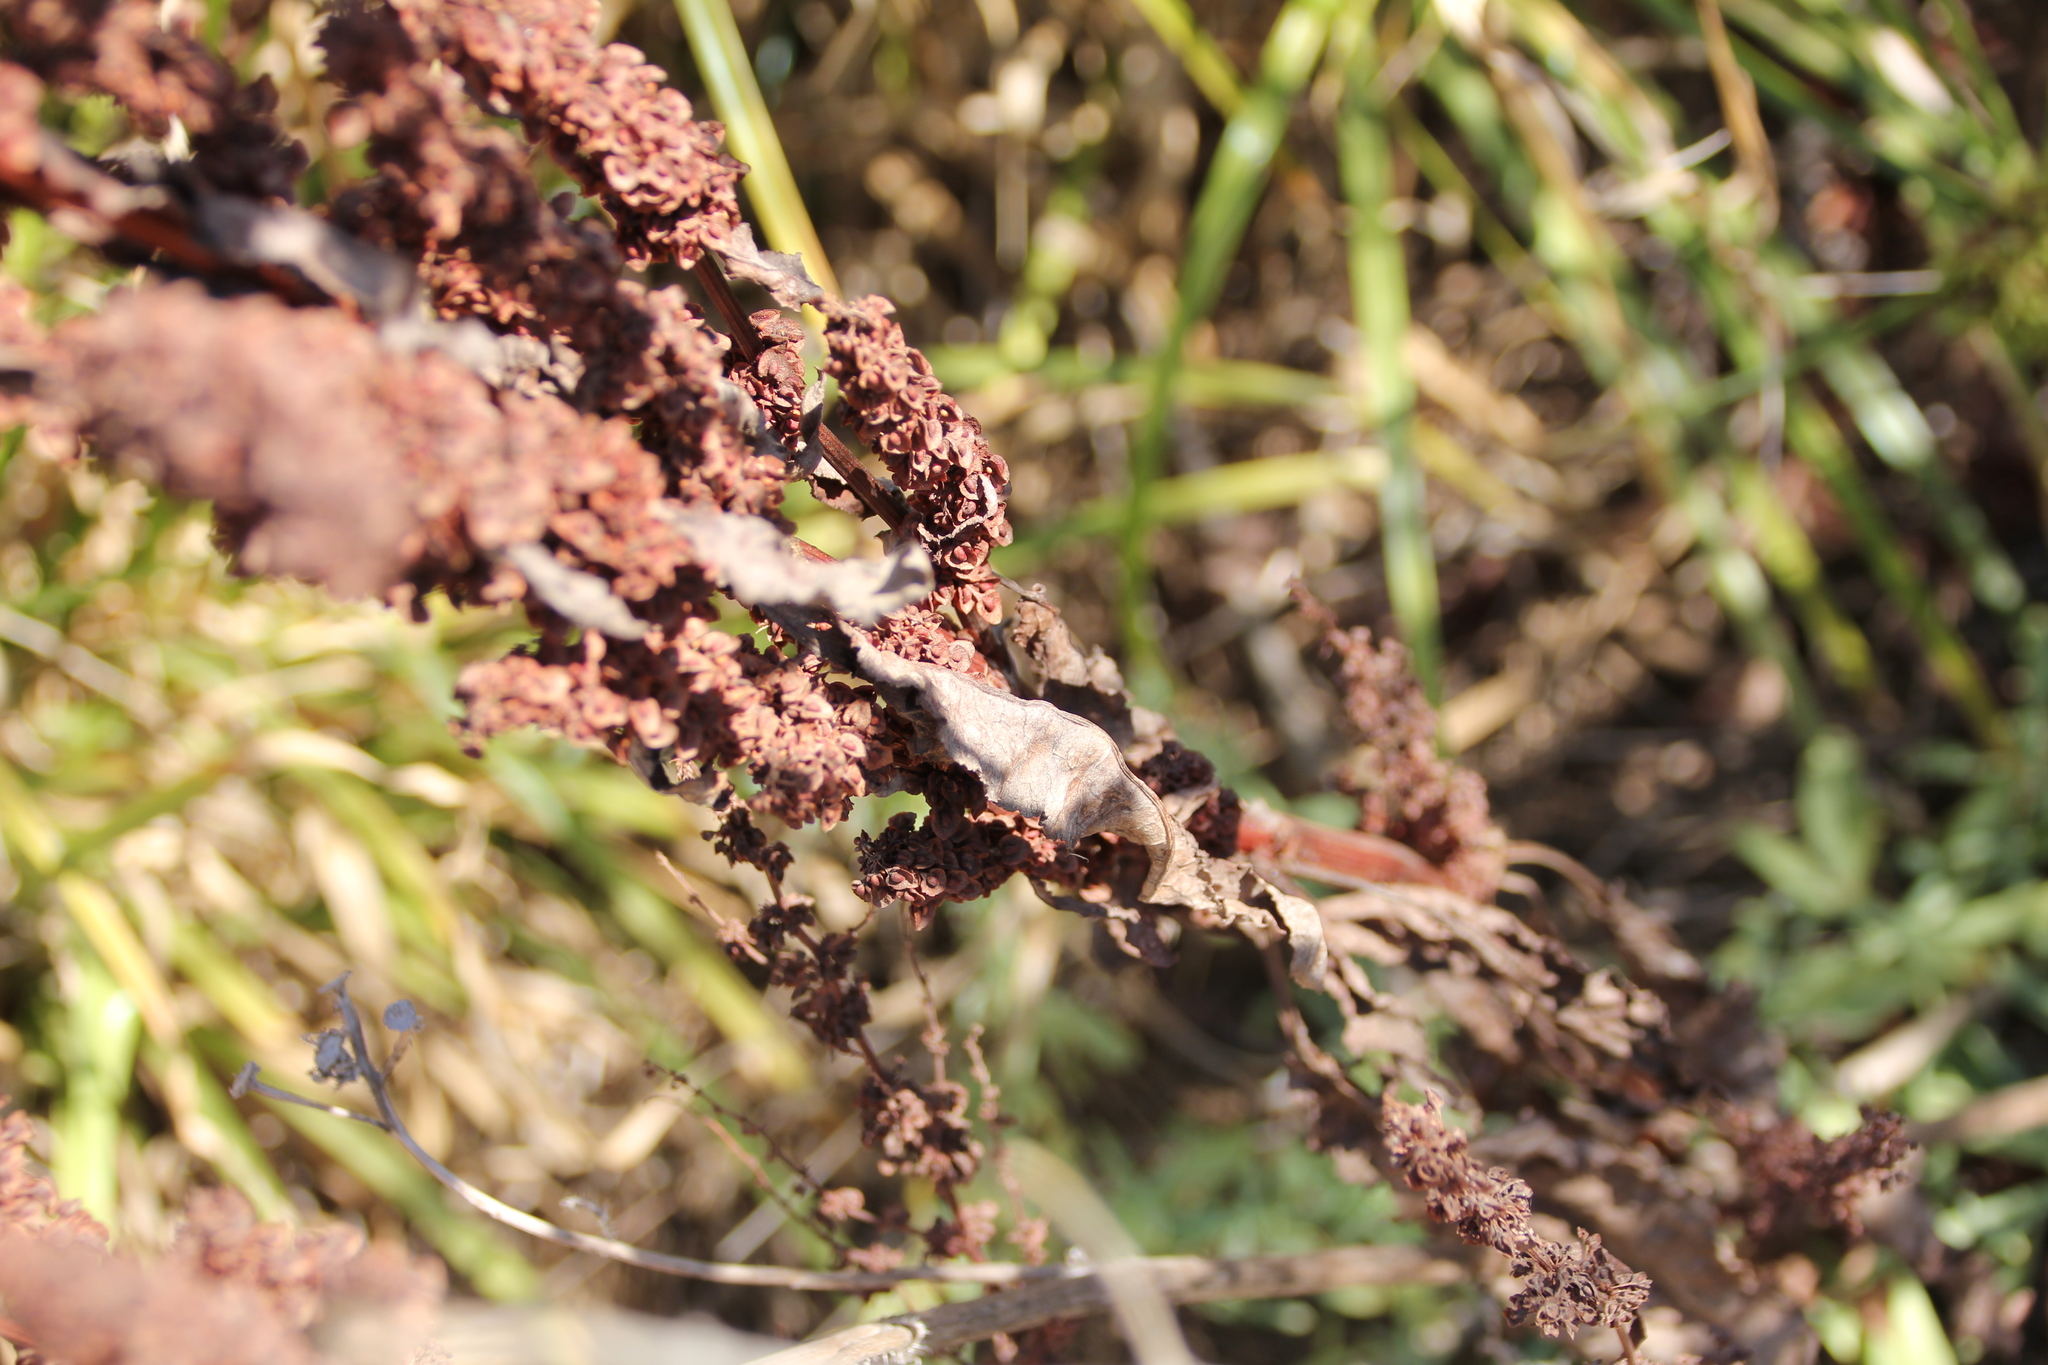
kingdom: Plantae
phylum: Tracheophyta
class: Magnoliopsida
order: Caryophyllales
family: Polygonaceae
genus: Rumex
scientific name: Rumex crispus
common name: Curled dock
